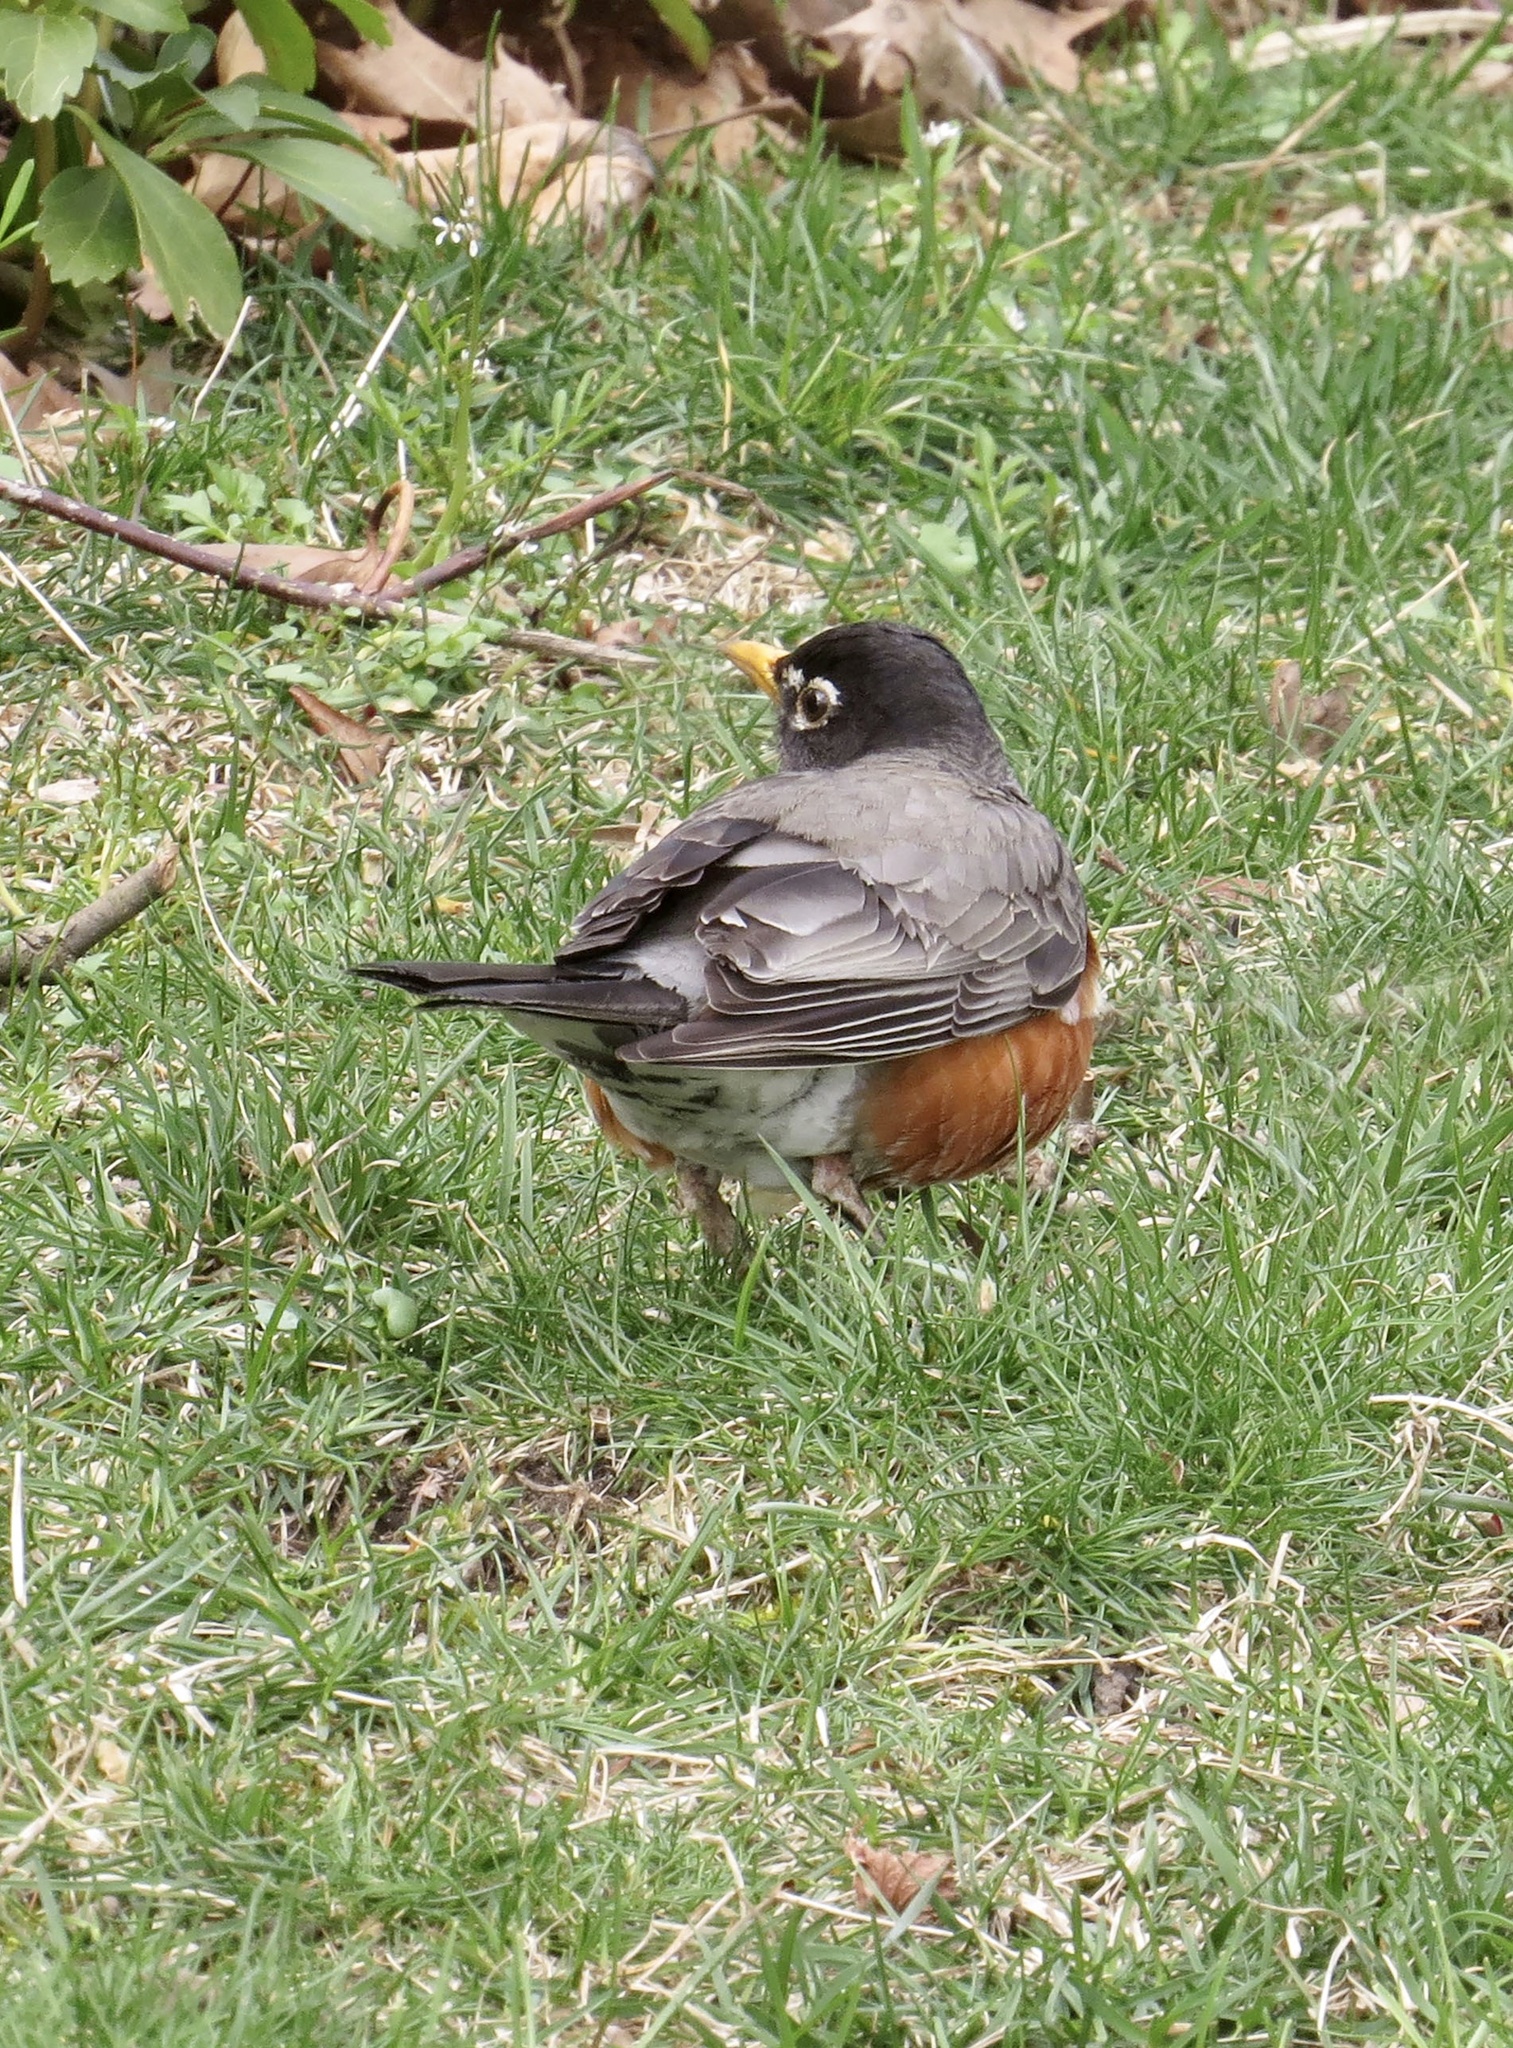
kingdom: Animalia
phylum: Chordata
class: Aves
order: Passeriformes
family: Turdidae
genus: Turdus
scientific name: Turdus migratorius
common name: American robin
